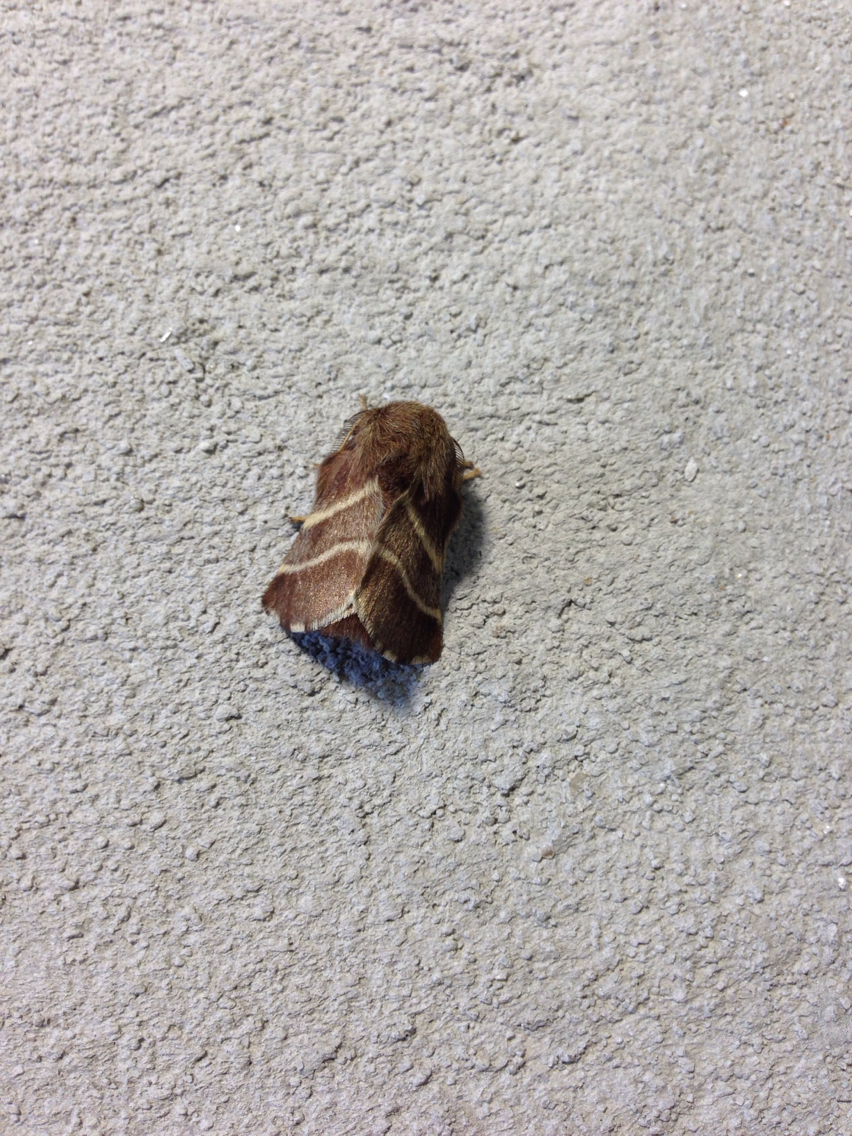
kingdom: Animalia
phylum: Arthropoda
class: Insecta
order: Lepidoptera
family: Lasiocampidae
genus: Malacosoma
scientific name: Malacosoma americana
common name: Eastern tent caterpillar moth
